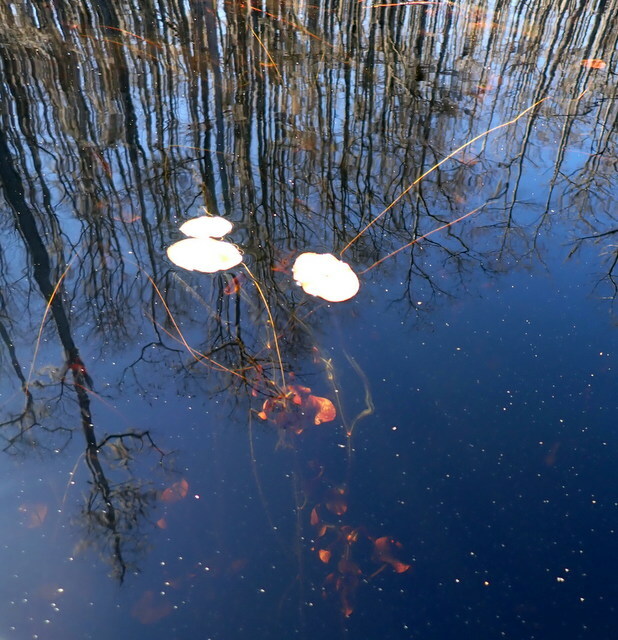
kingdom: Plantae
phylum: Tracheophyta
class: Magnoliopsida
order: Nymphaeales
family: Cabombaceae
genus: Brasenia
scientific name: Brasenia schreberi
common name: Water-shield
